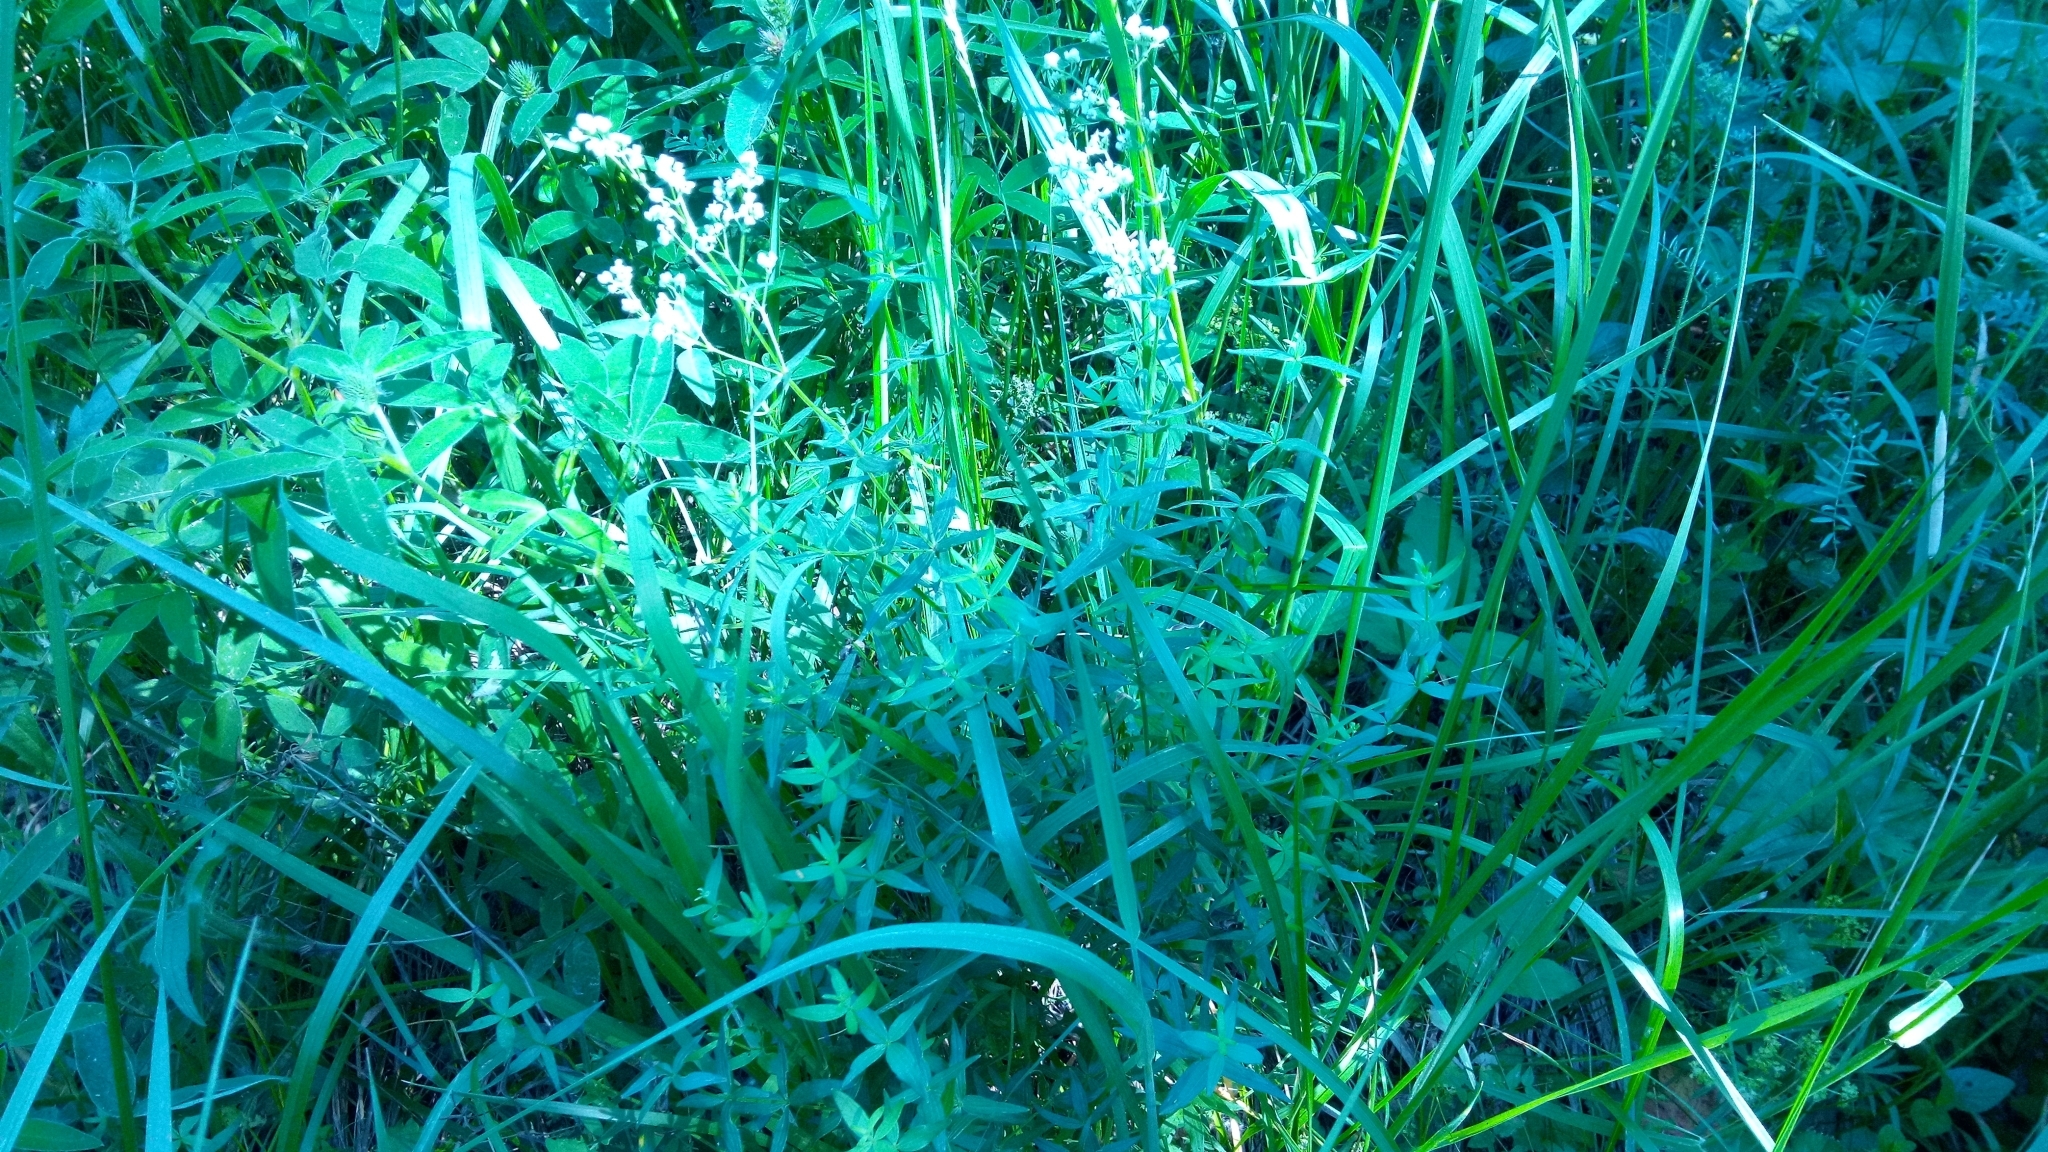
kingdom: Plantae
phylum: Tracheophyta
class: Magnoliopsida
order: Gentianales
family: Rubiaceae
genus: Galium
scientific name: Galium boreale
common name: Northern bedstraw
